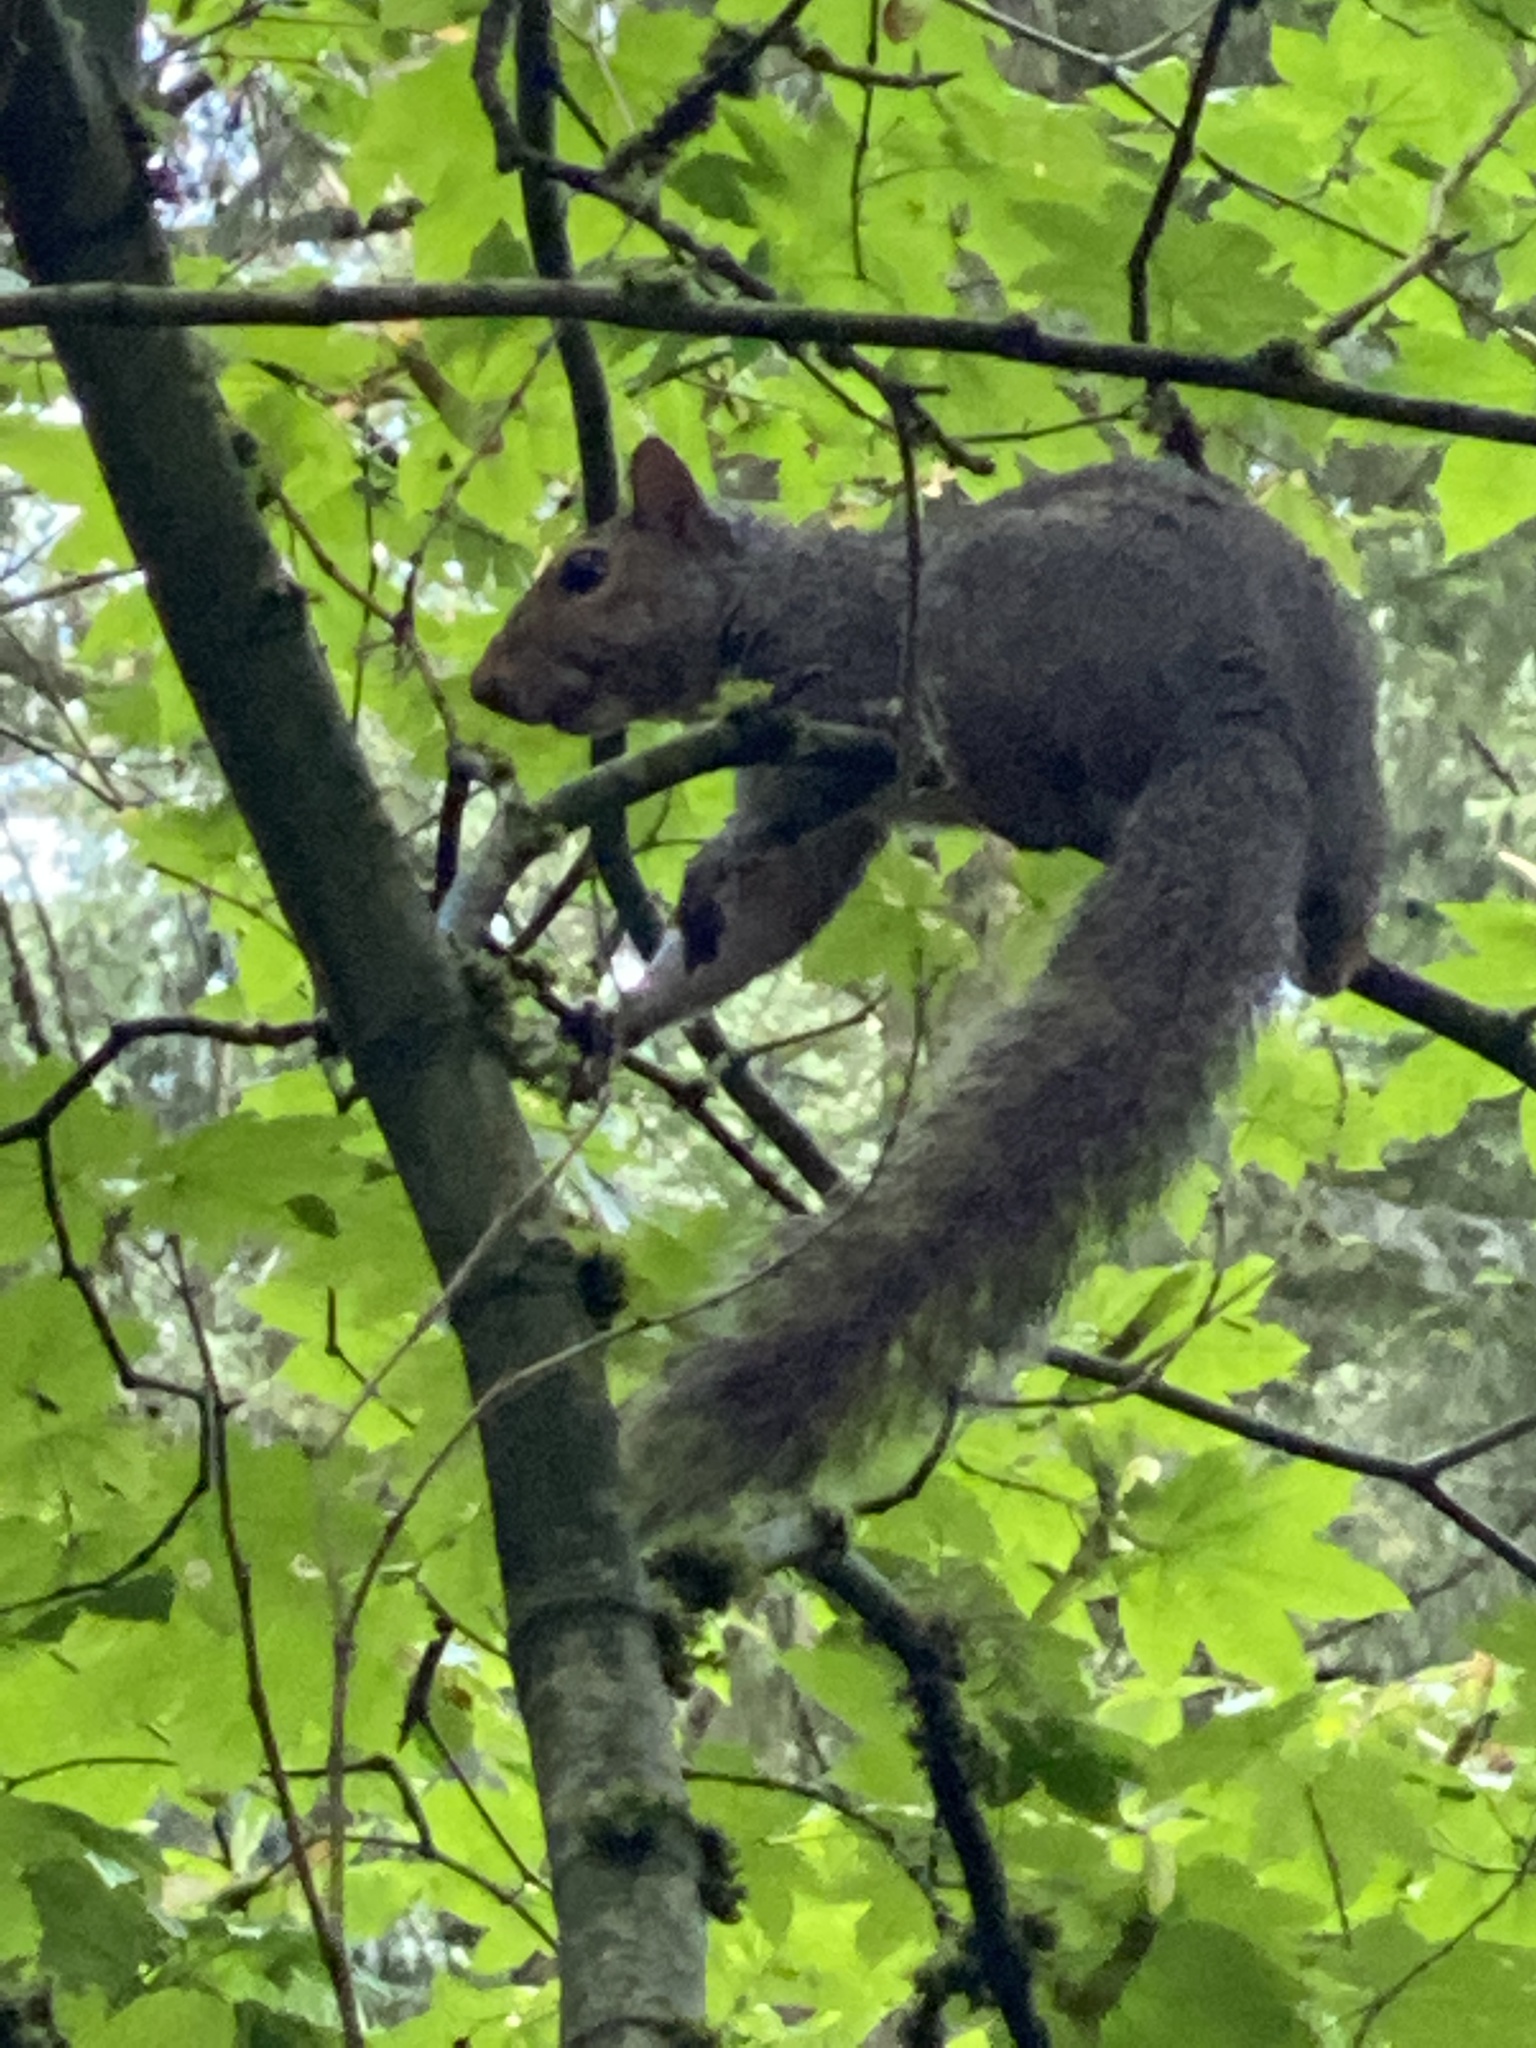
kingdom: Animalia
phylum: Chordata
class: Mammalia
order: Rodentia
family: Sciuridae
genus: Sciurus
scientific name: Sciurus carolinensis
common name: Eastern gray squirrel
